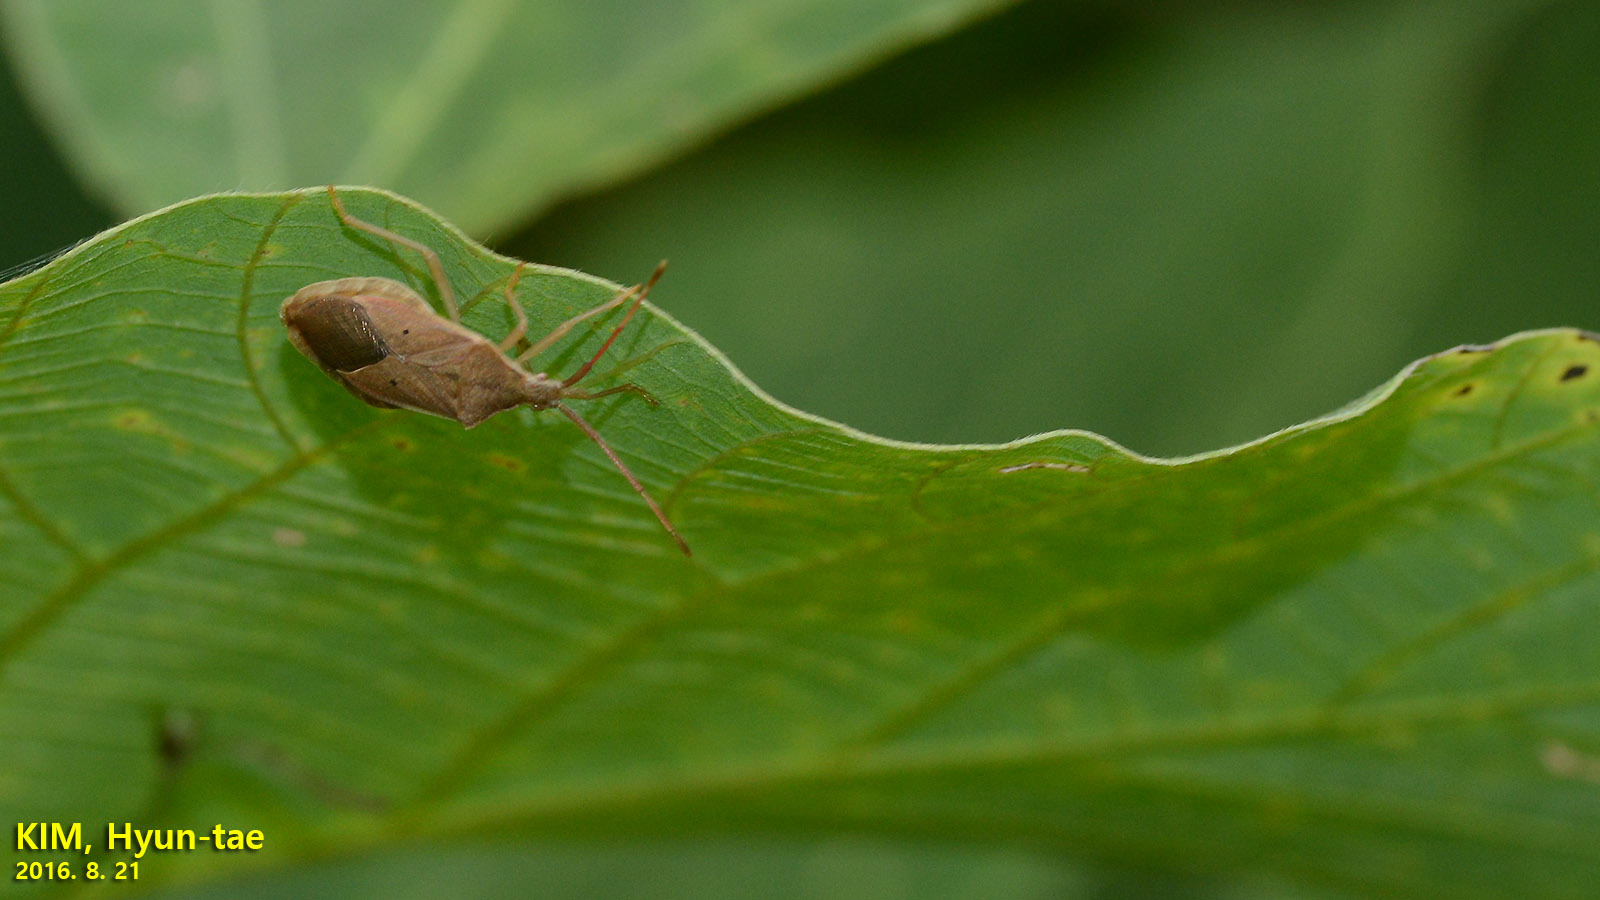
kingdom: Animalia
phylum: Arthropoda
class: Insecta
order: Hemiptera
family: Coreidae
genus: Homoeocerus
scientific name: Homoeocerus unipunctatus
